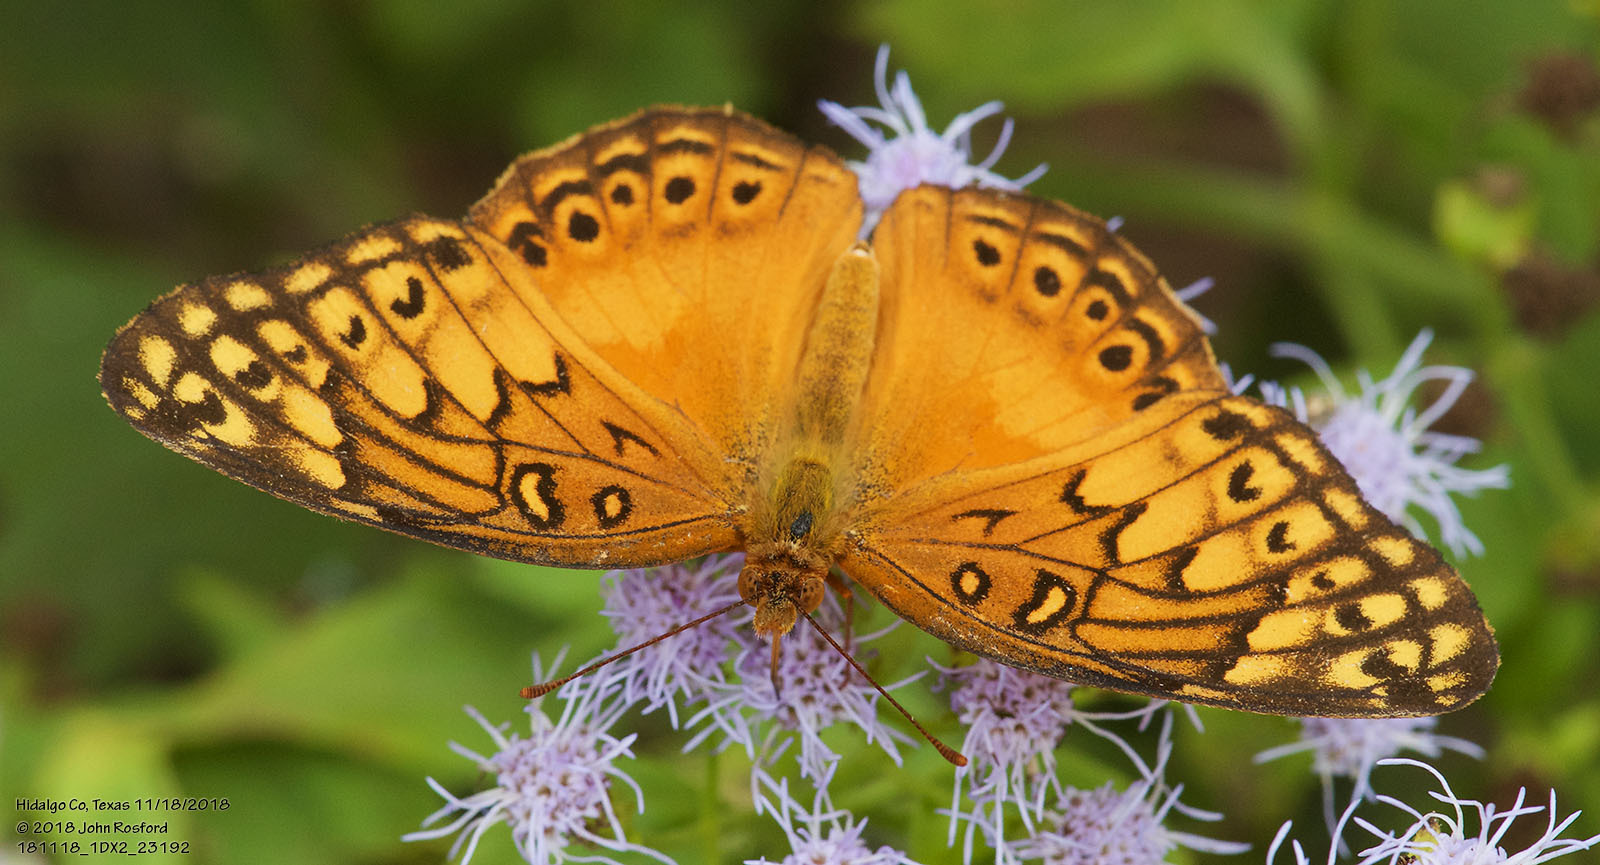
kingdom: Animalia
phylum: Arthropoda
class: Insecta
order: Lepidoptera
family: Nymphalidae
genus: Euptoieta
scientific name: Euptoieta hegesia
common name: Mexican fritillary
